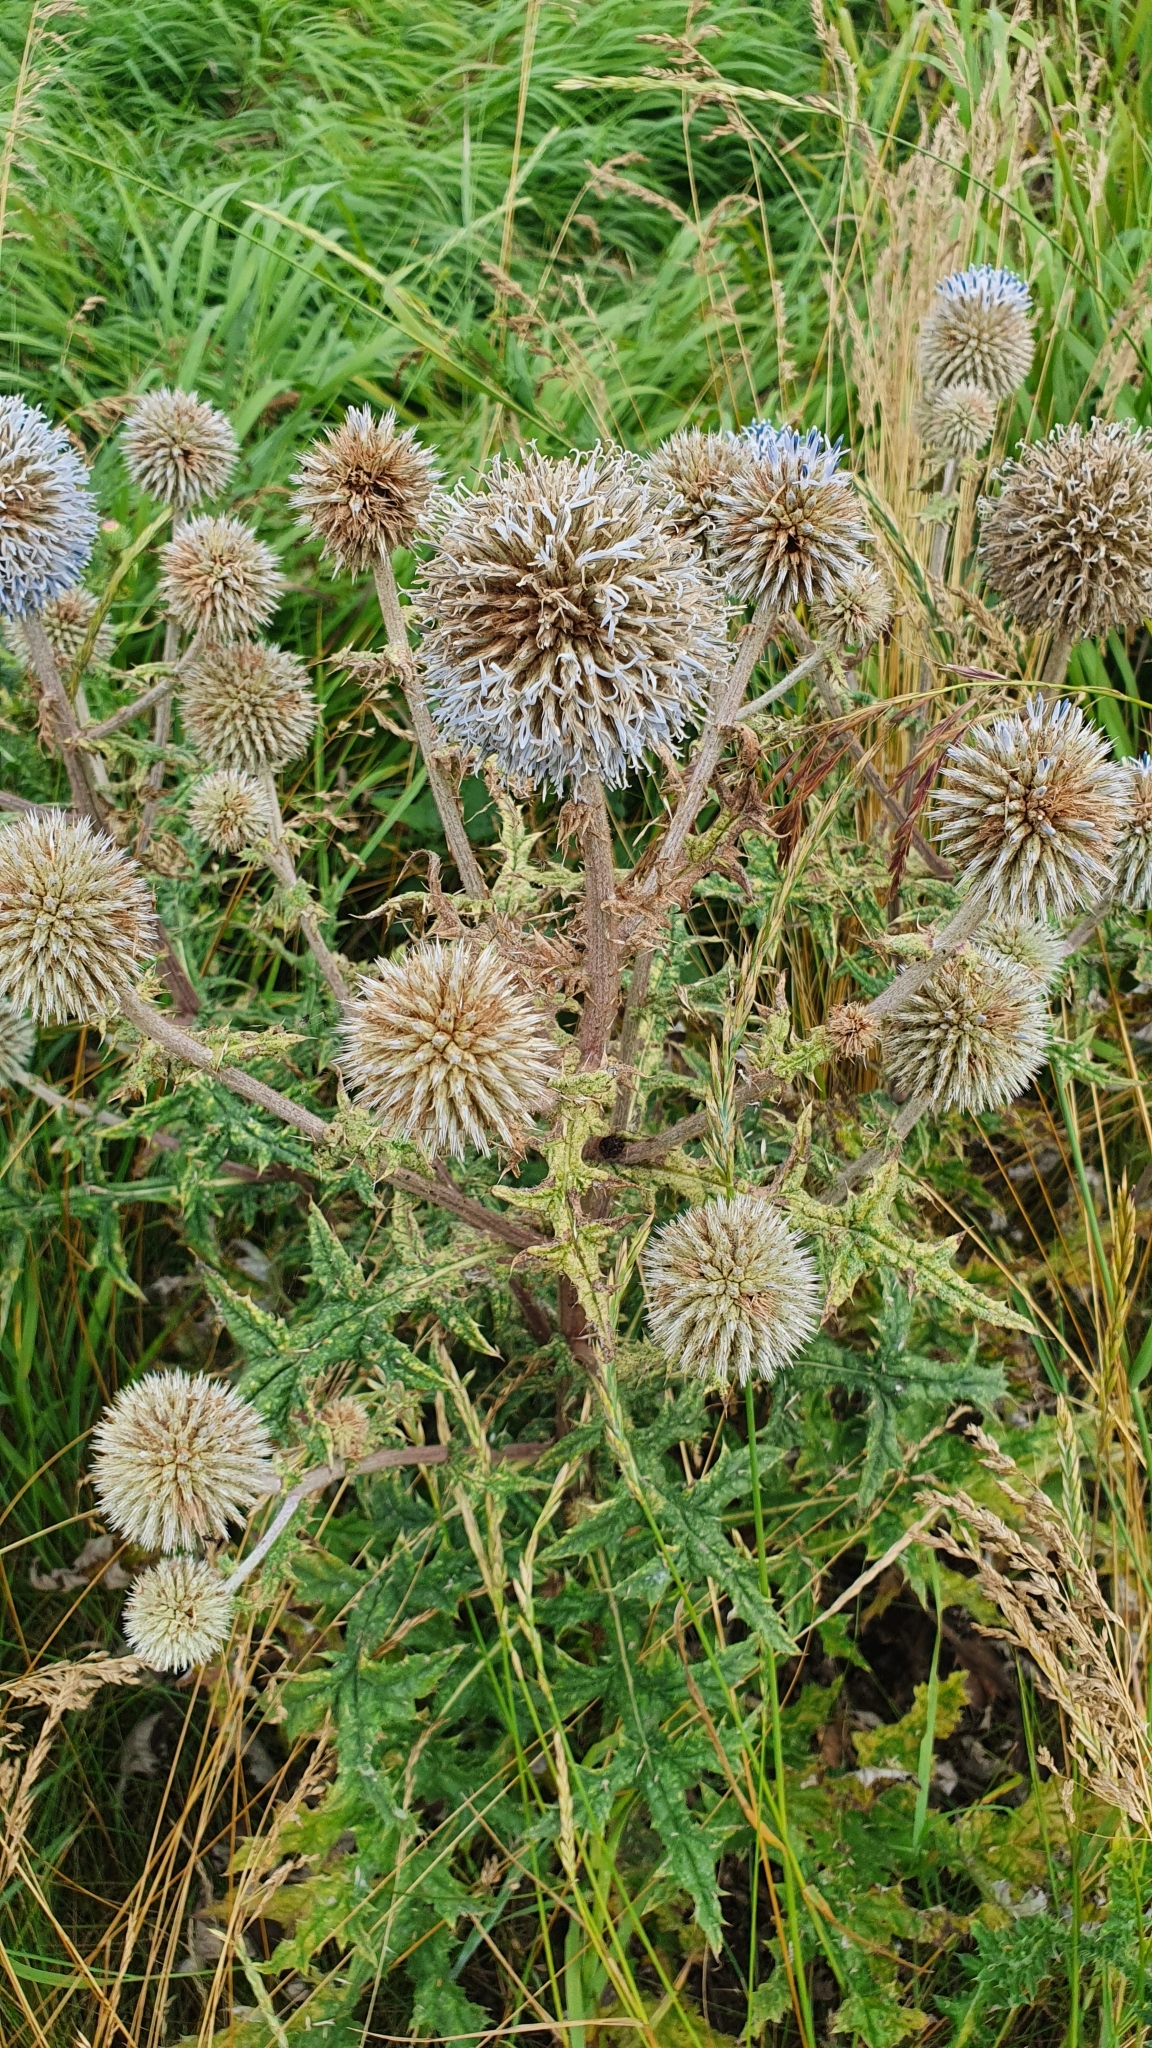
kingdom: Plantae
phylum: Tracheophyta
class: Magnoliopsida
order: Asterales
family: Asteraceae
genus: Echinops
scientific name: Echinops sphaerocephalus
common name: Glandular globe-thistle
